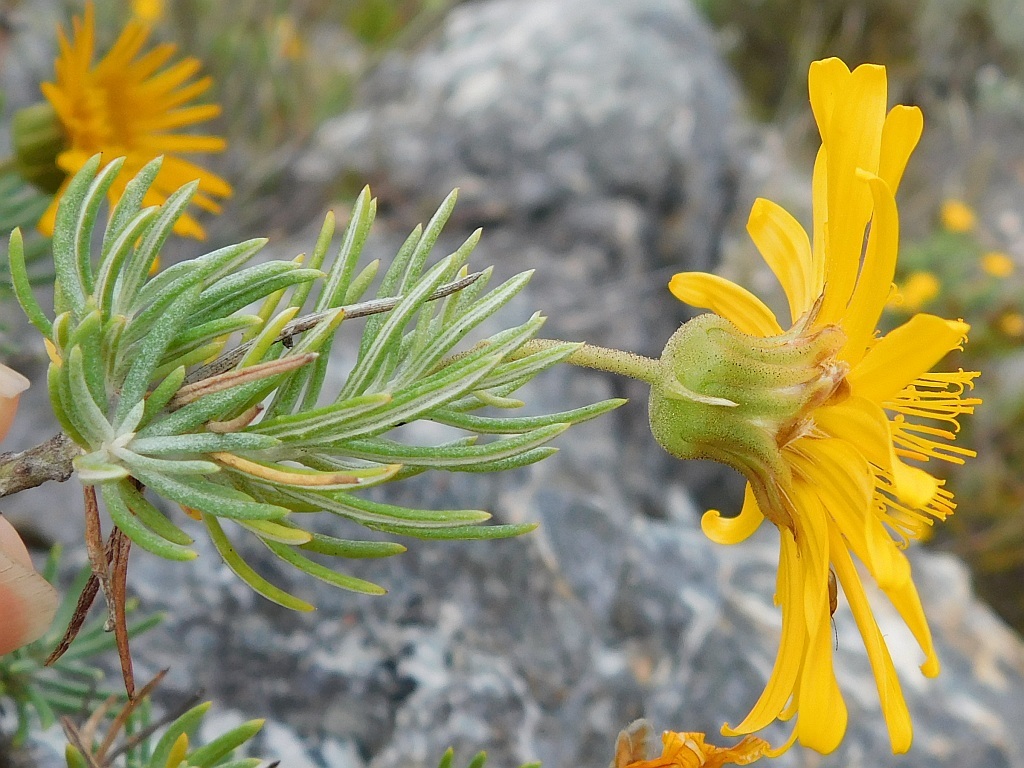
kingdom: Plantae
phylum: Tracheophyta
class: Magnoliopsida
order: Asterales
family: Asteraceae
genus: Heterolepis
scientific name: Heterolepis aliena
